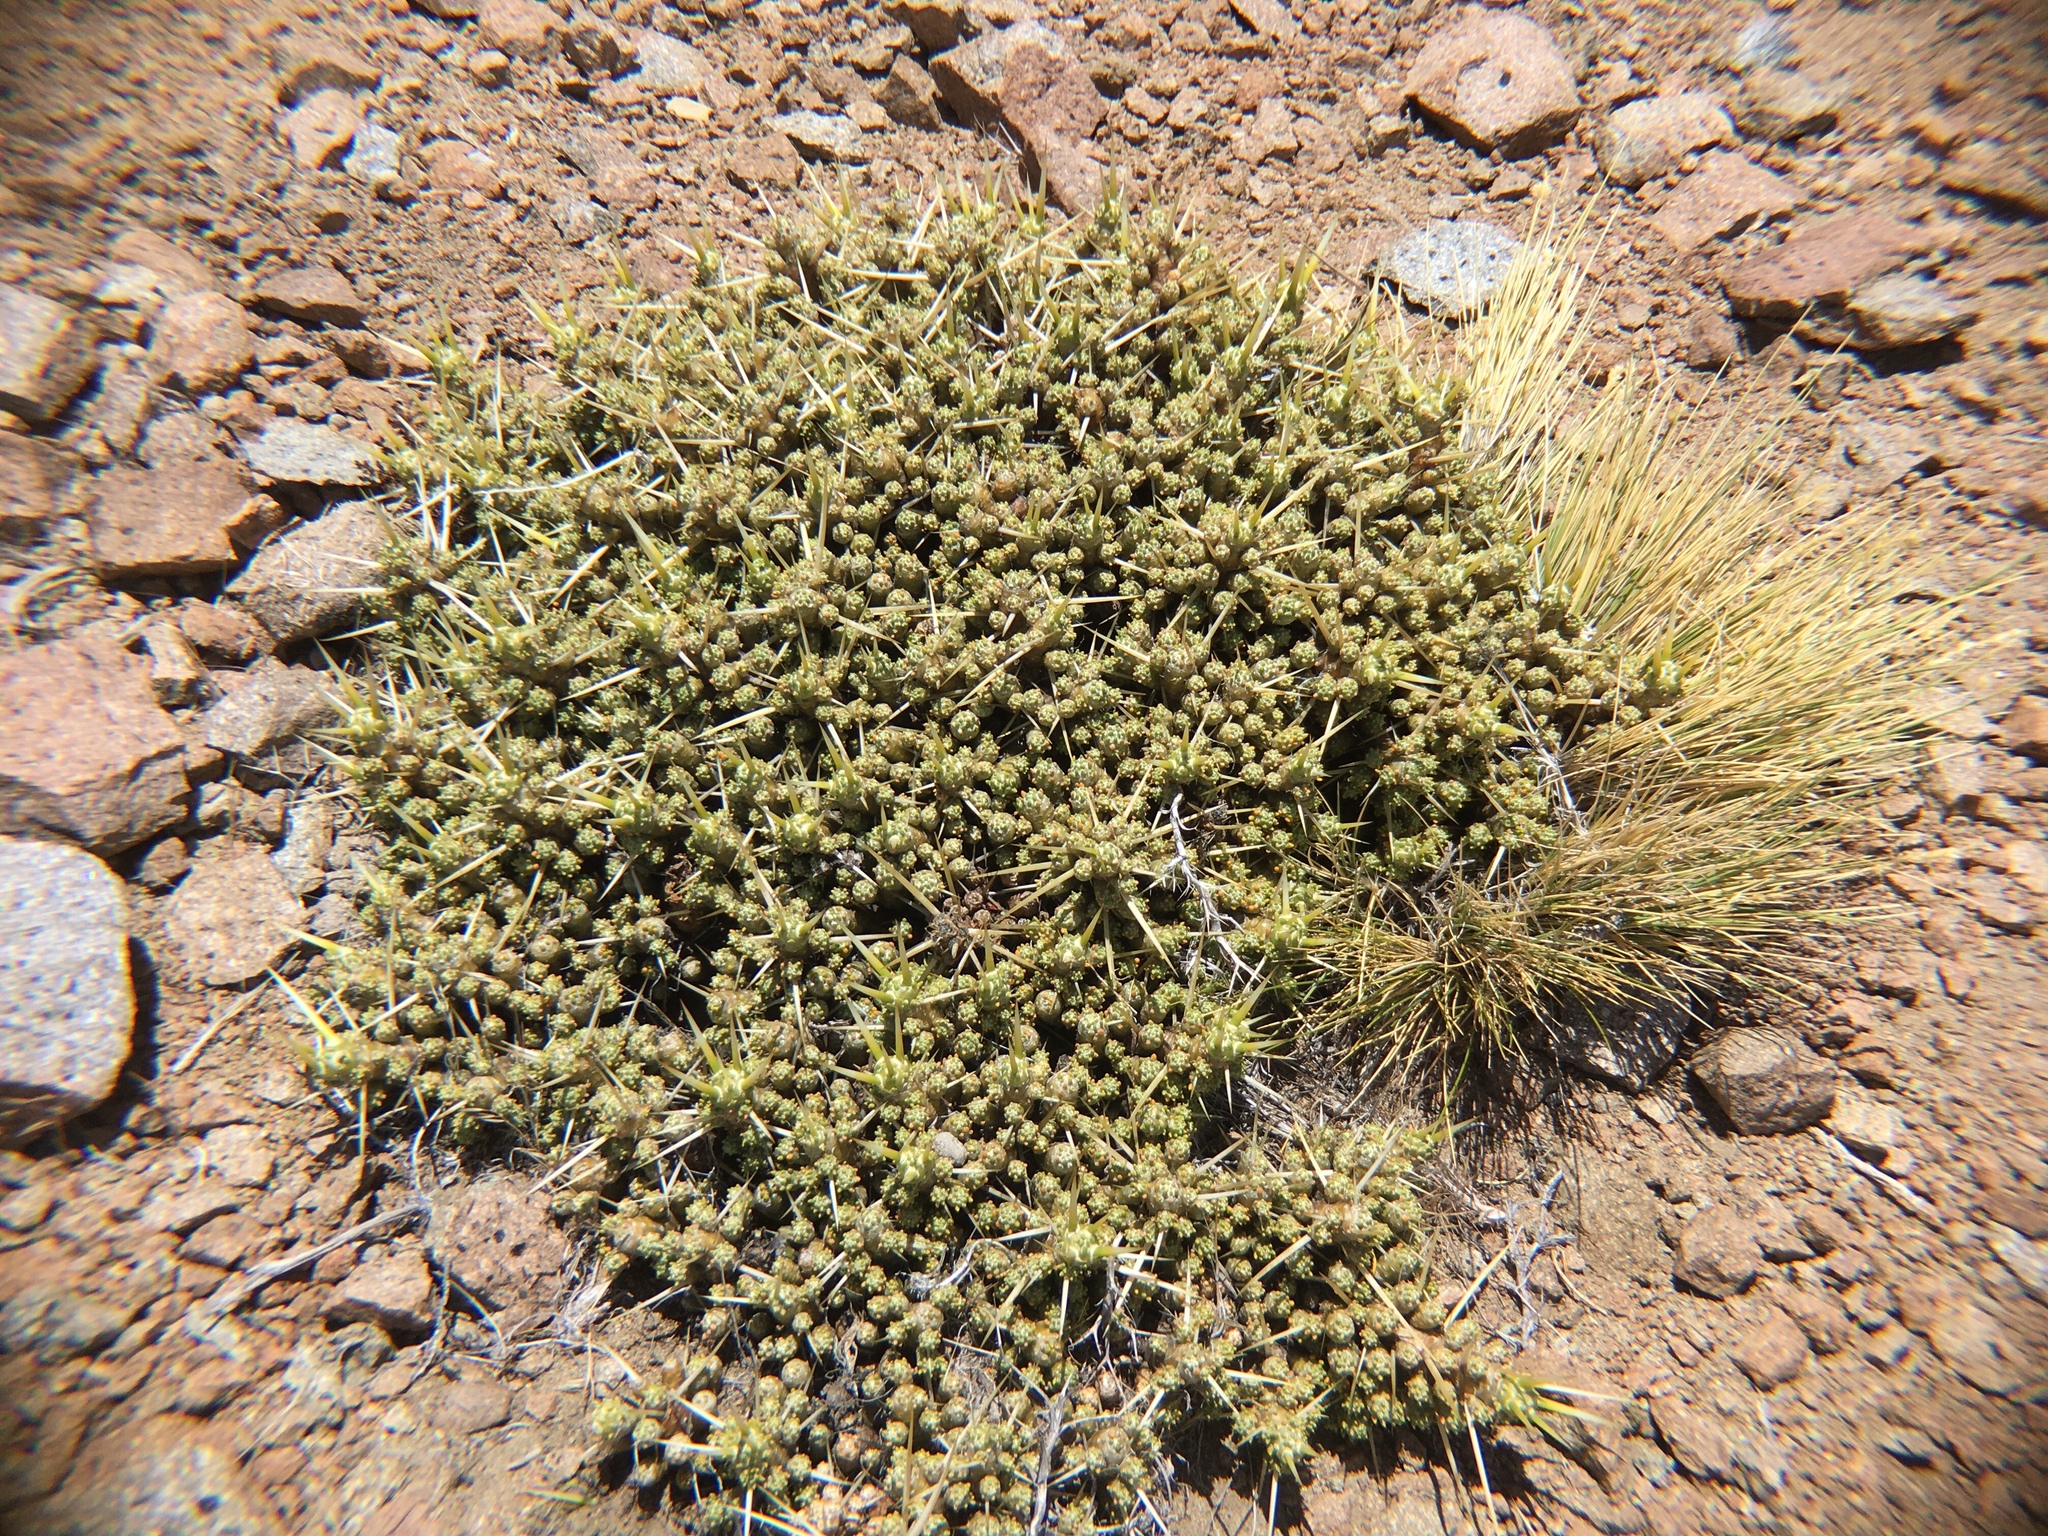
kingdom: Plantae
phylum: Tracheophyta
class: Magnoliopsida
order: Caryophyllales
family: Cactaceae
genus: Maihuenia
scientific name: Maihuenia patagonica
